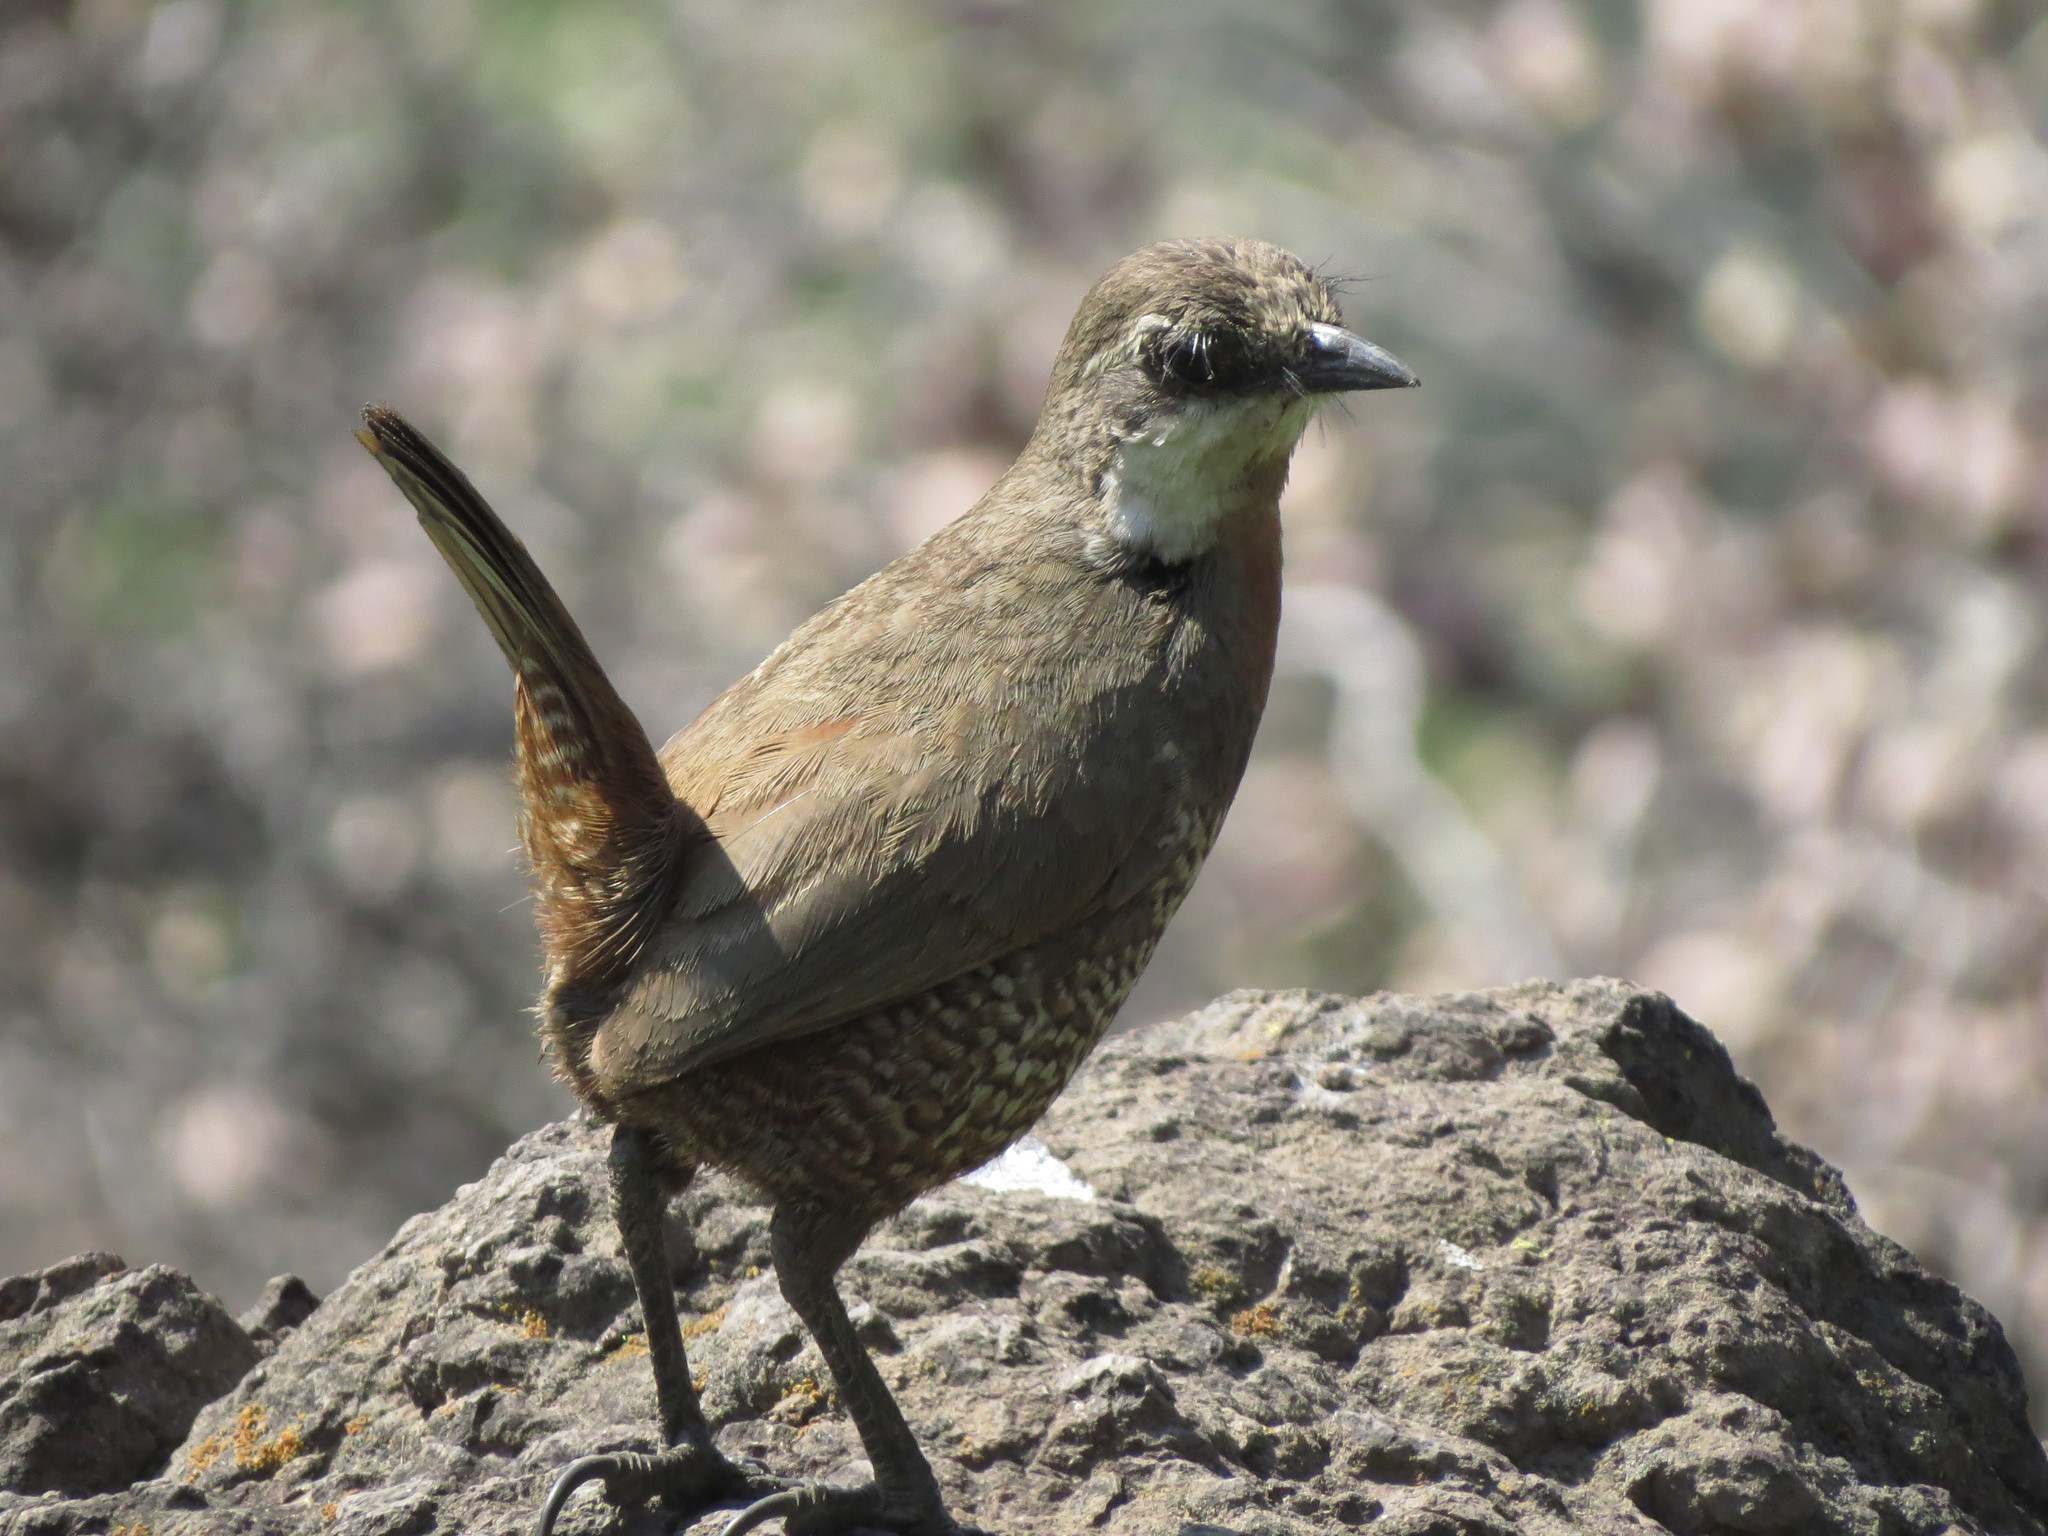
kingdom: Animalia
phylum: Chordata
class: Aves
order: Passeriformes
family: Rhinocryptidae
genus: Pteroptochos
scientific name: Pteroptochos megapodius
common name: Moustached turca
